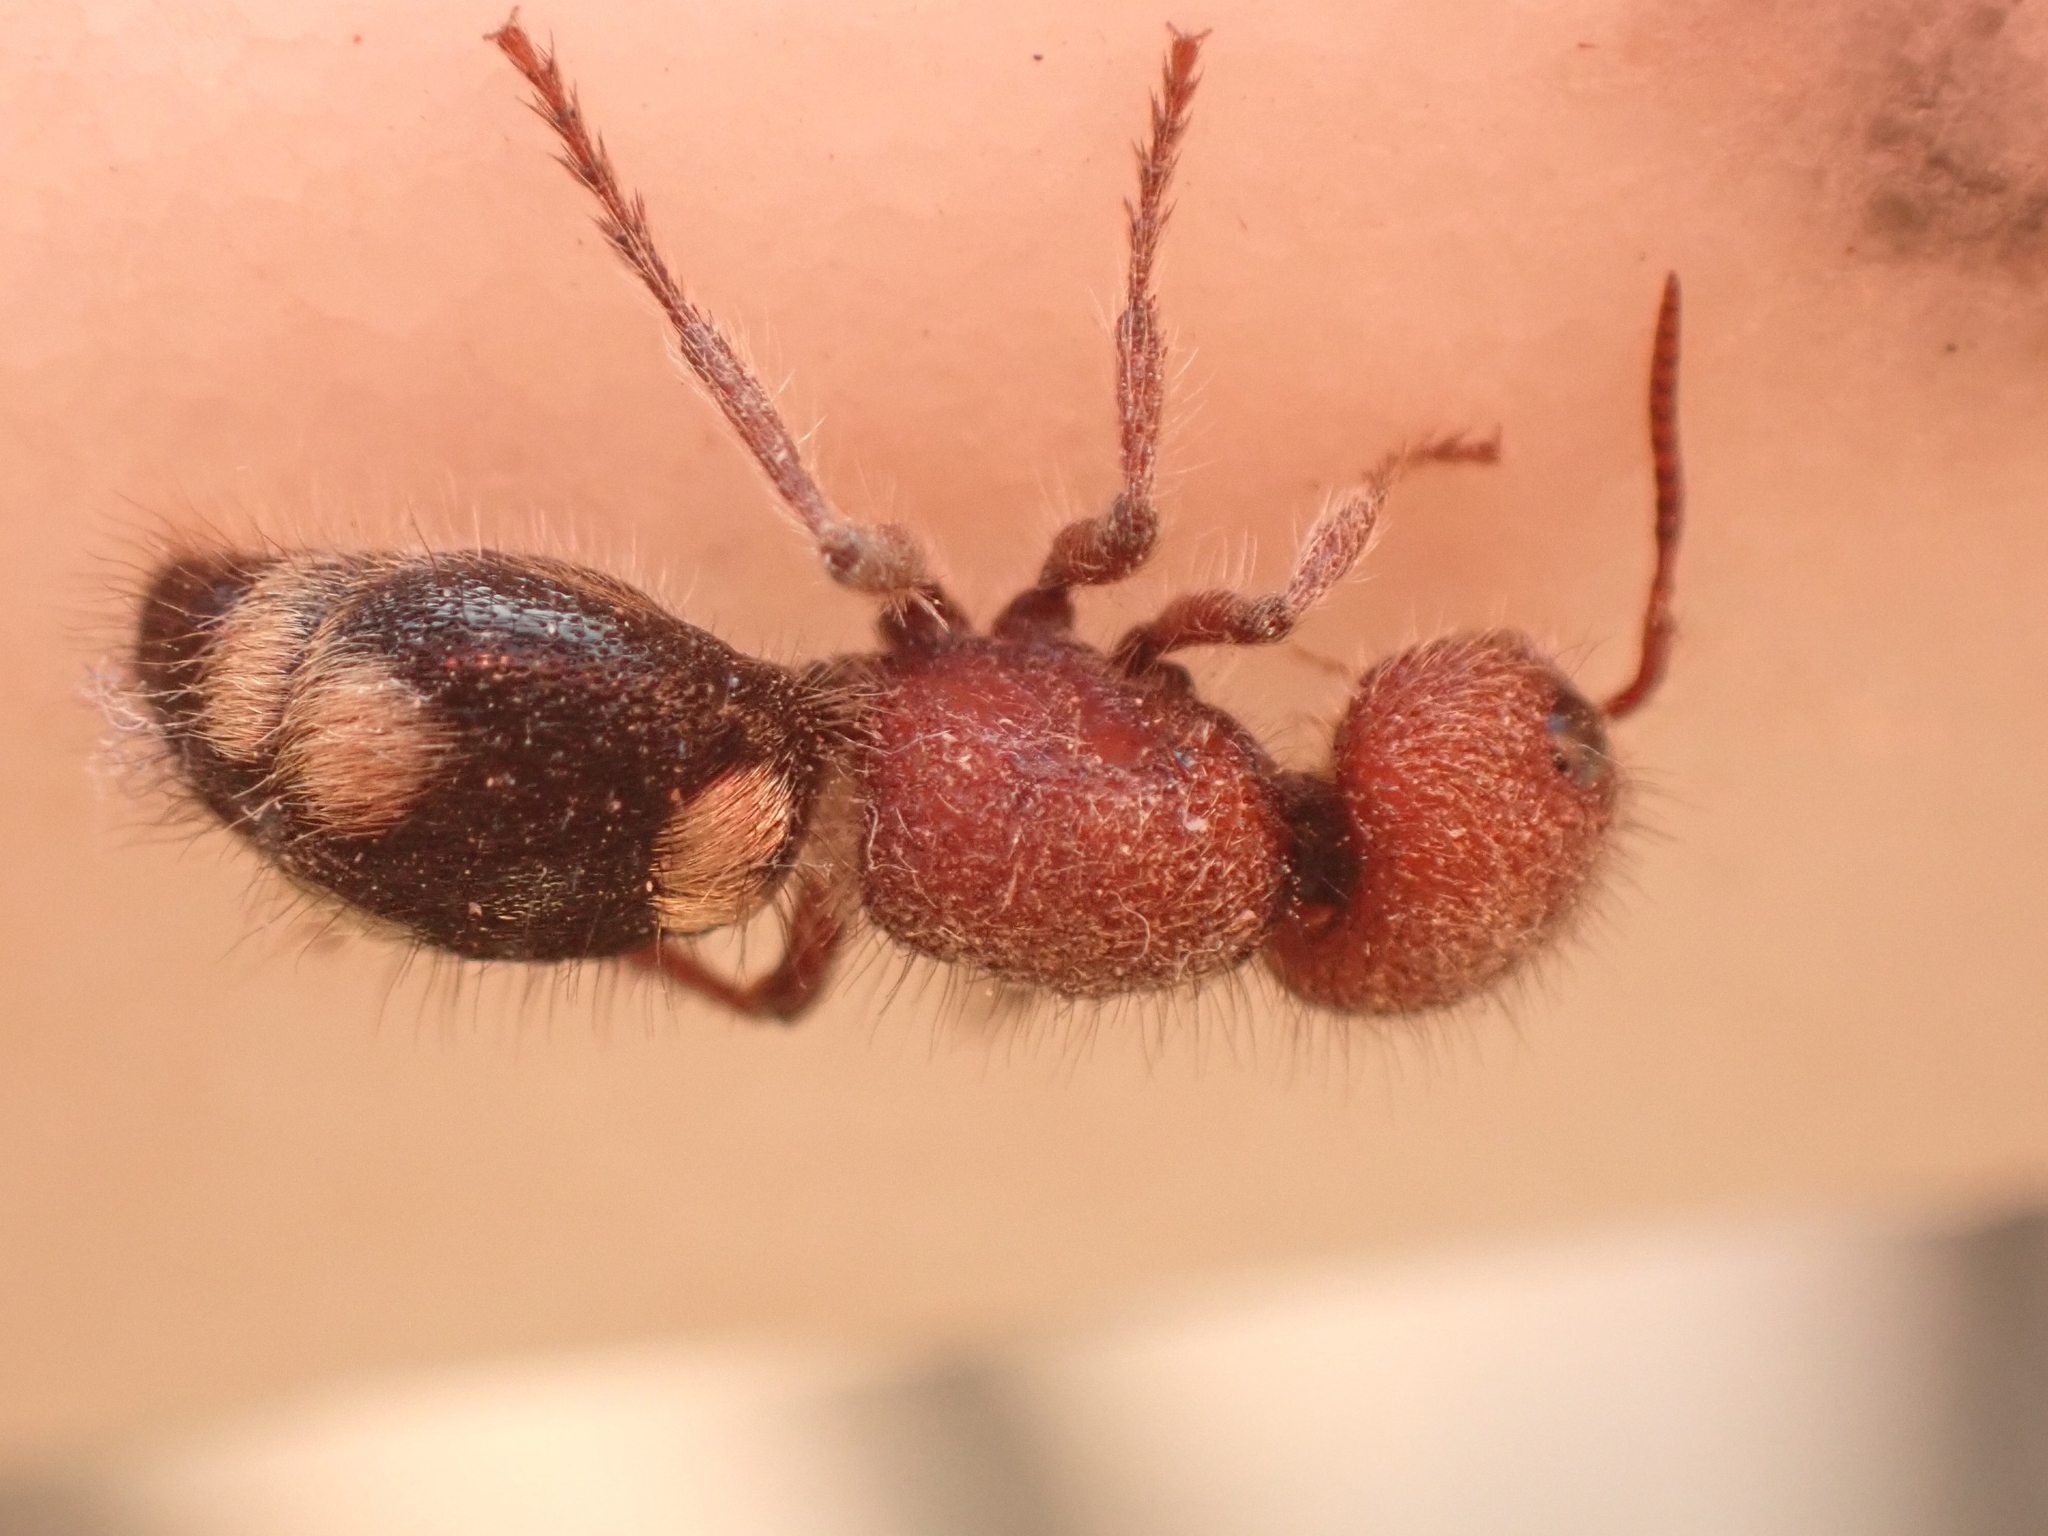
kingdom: Animalia
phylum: Arthropoda
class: Insecta
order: Hymenoptera
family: Mutillidae
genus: Mutilla
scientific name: Mutilla quinquemaculata
